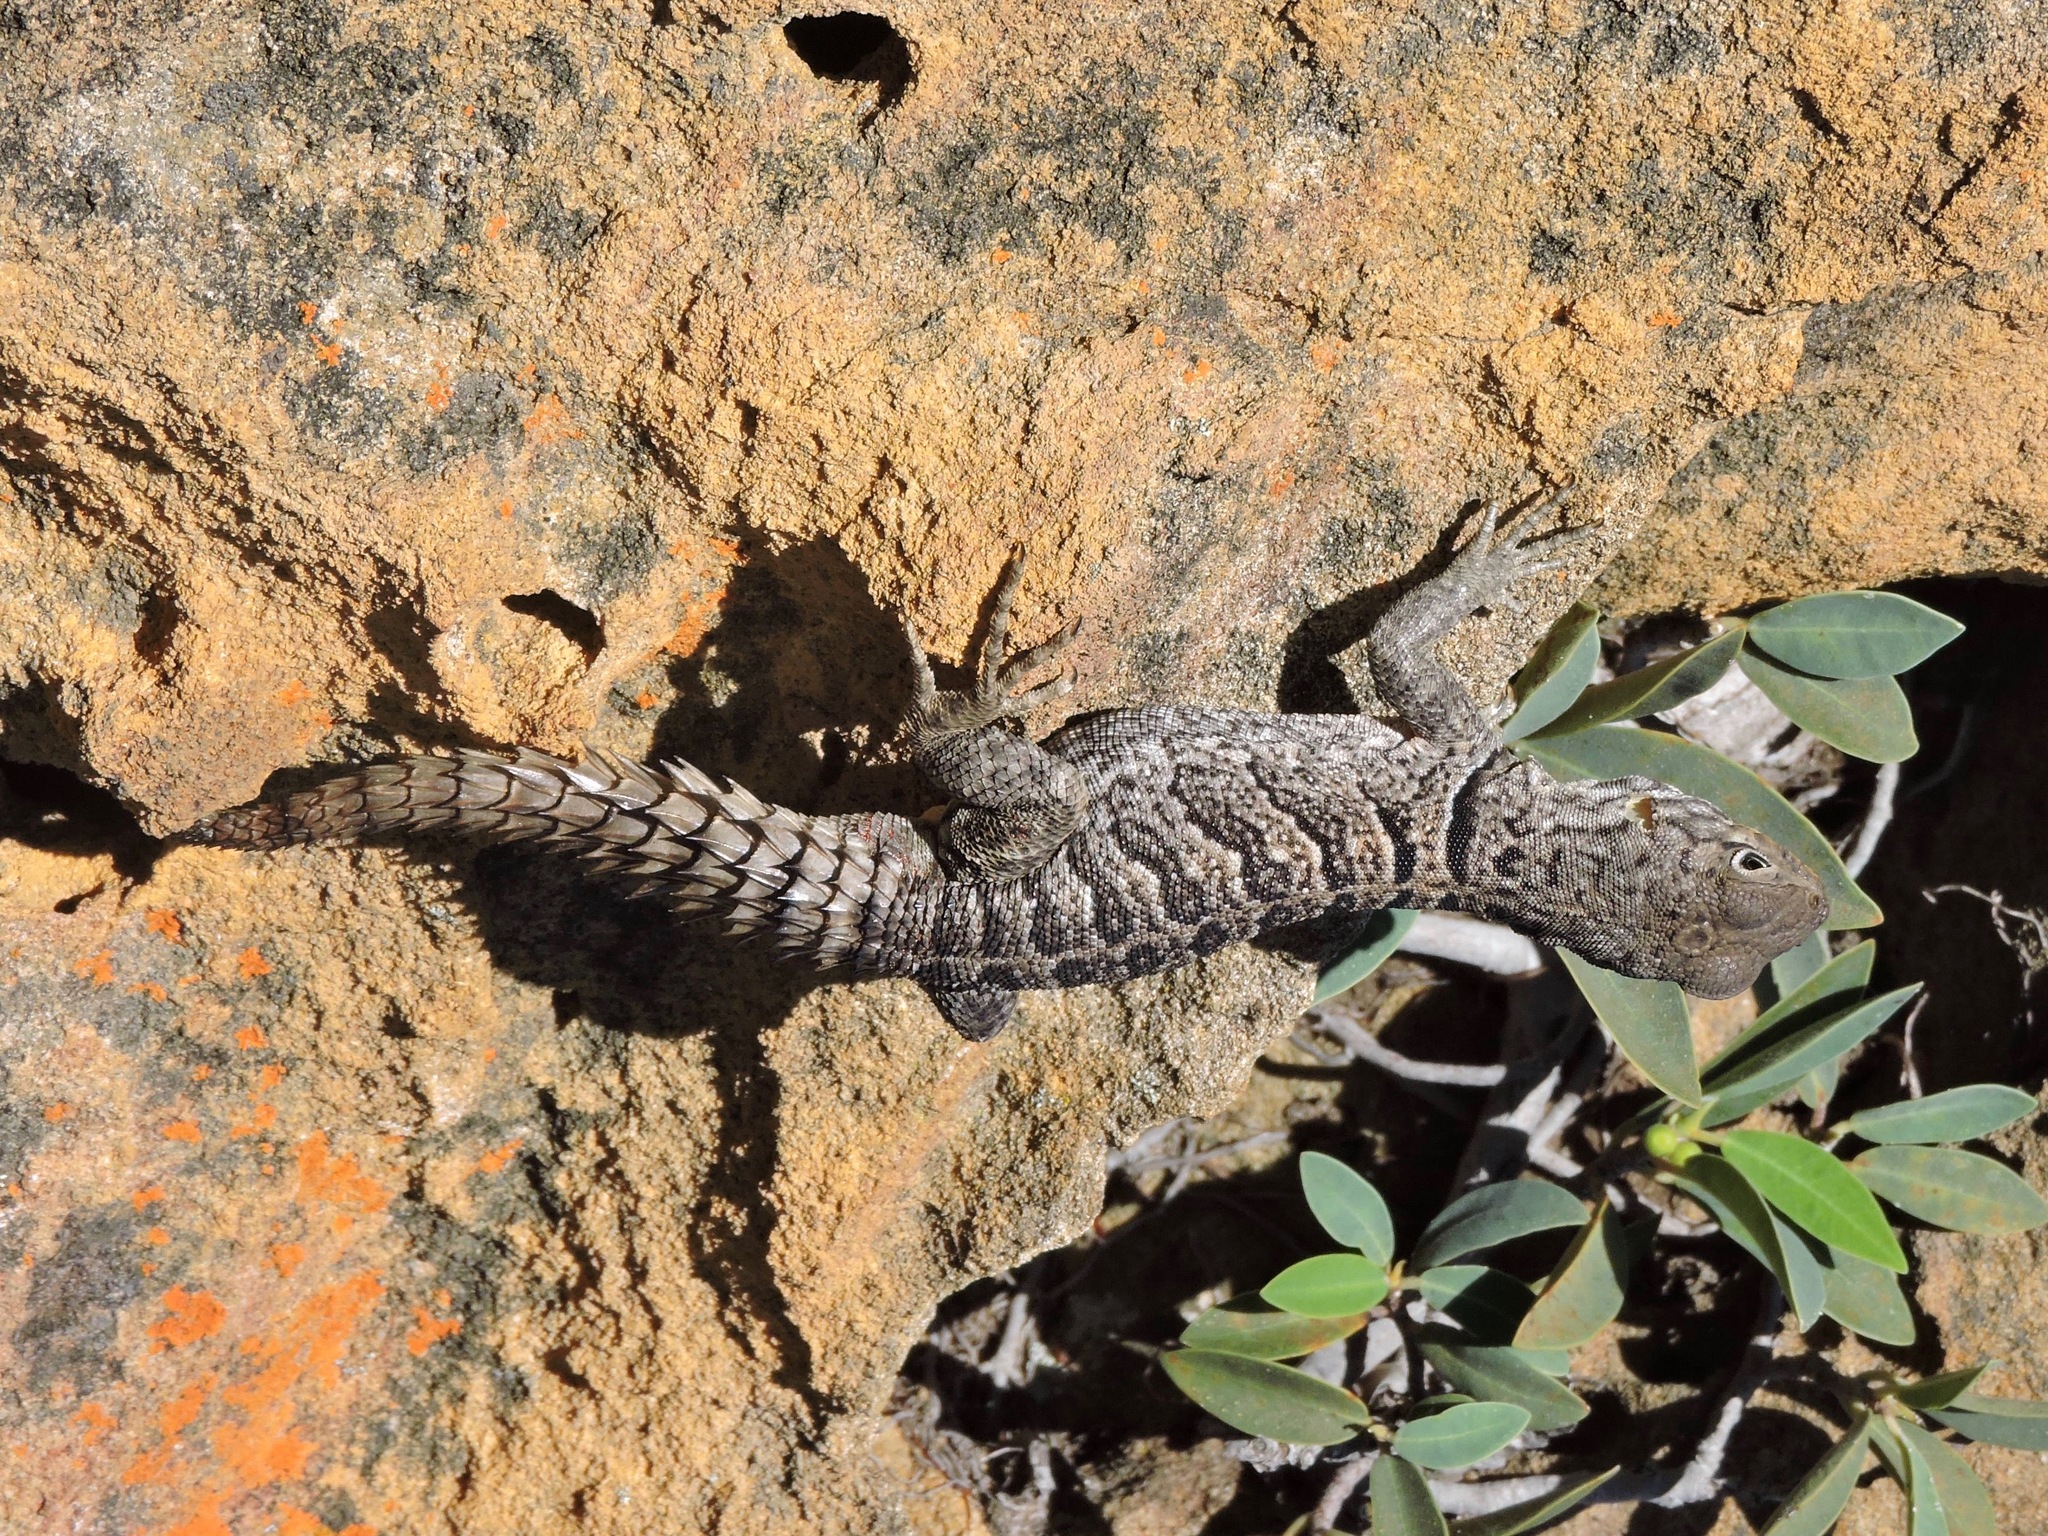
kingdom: Animalia
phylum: Chordata
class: Squamata
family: Opluridae
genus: Oplurus
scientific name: Oplurus cyclurus
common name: Merrem's madagascar swift
